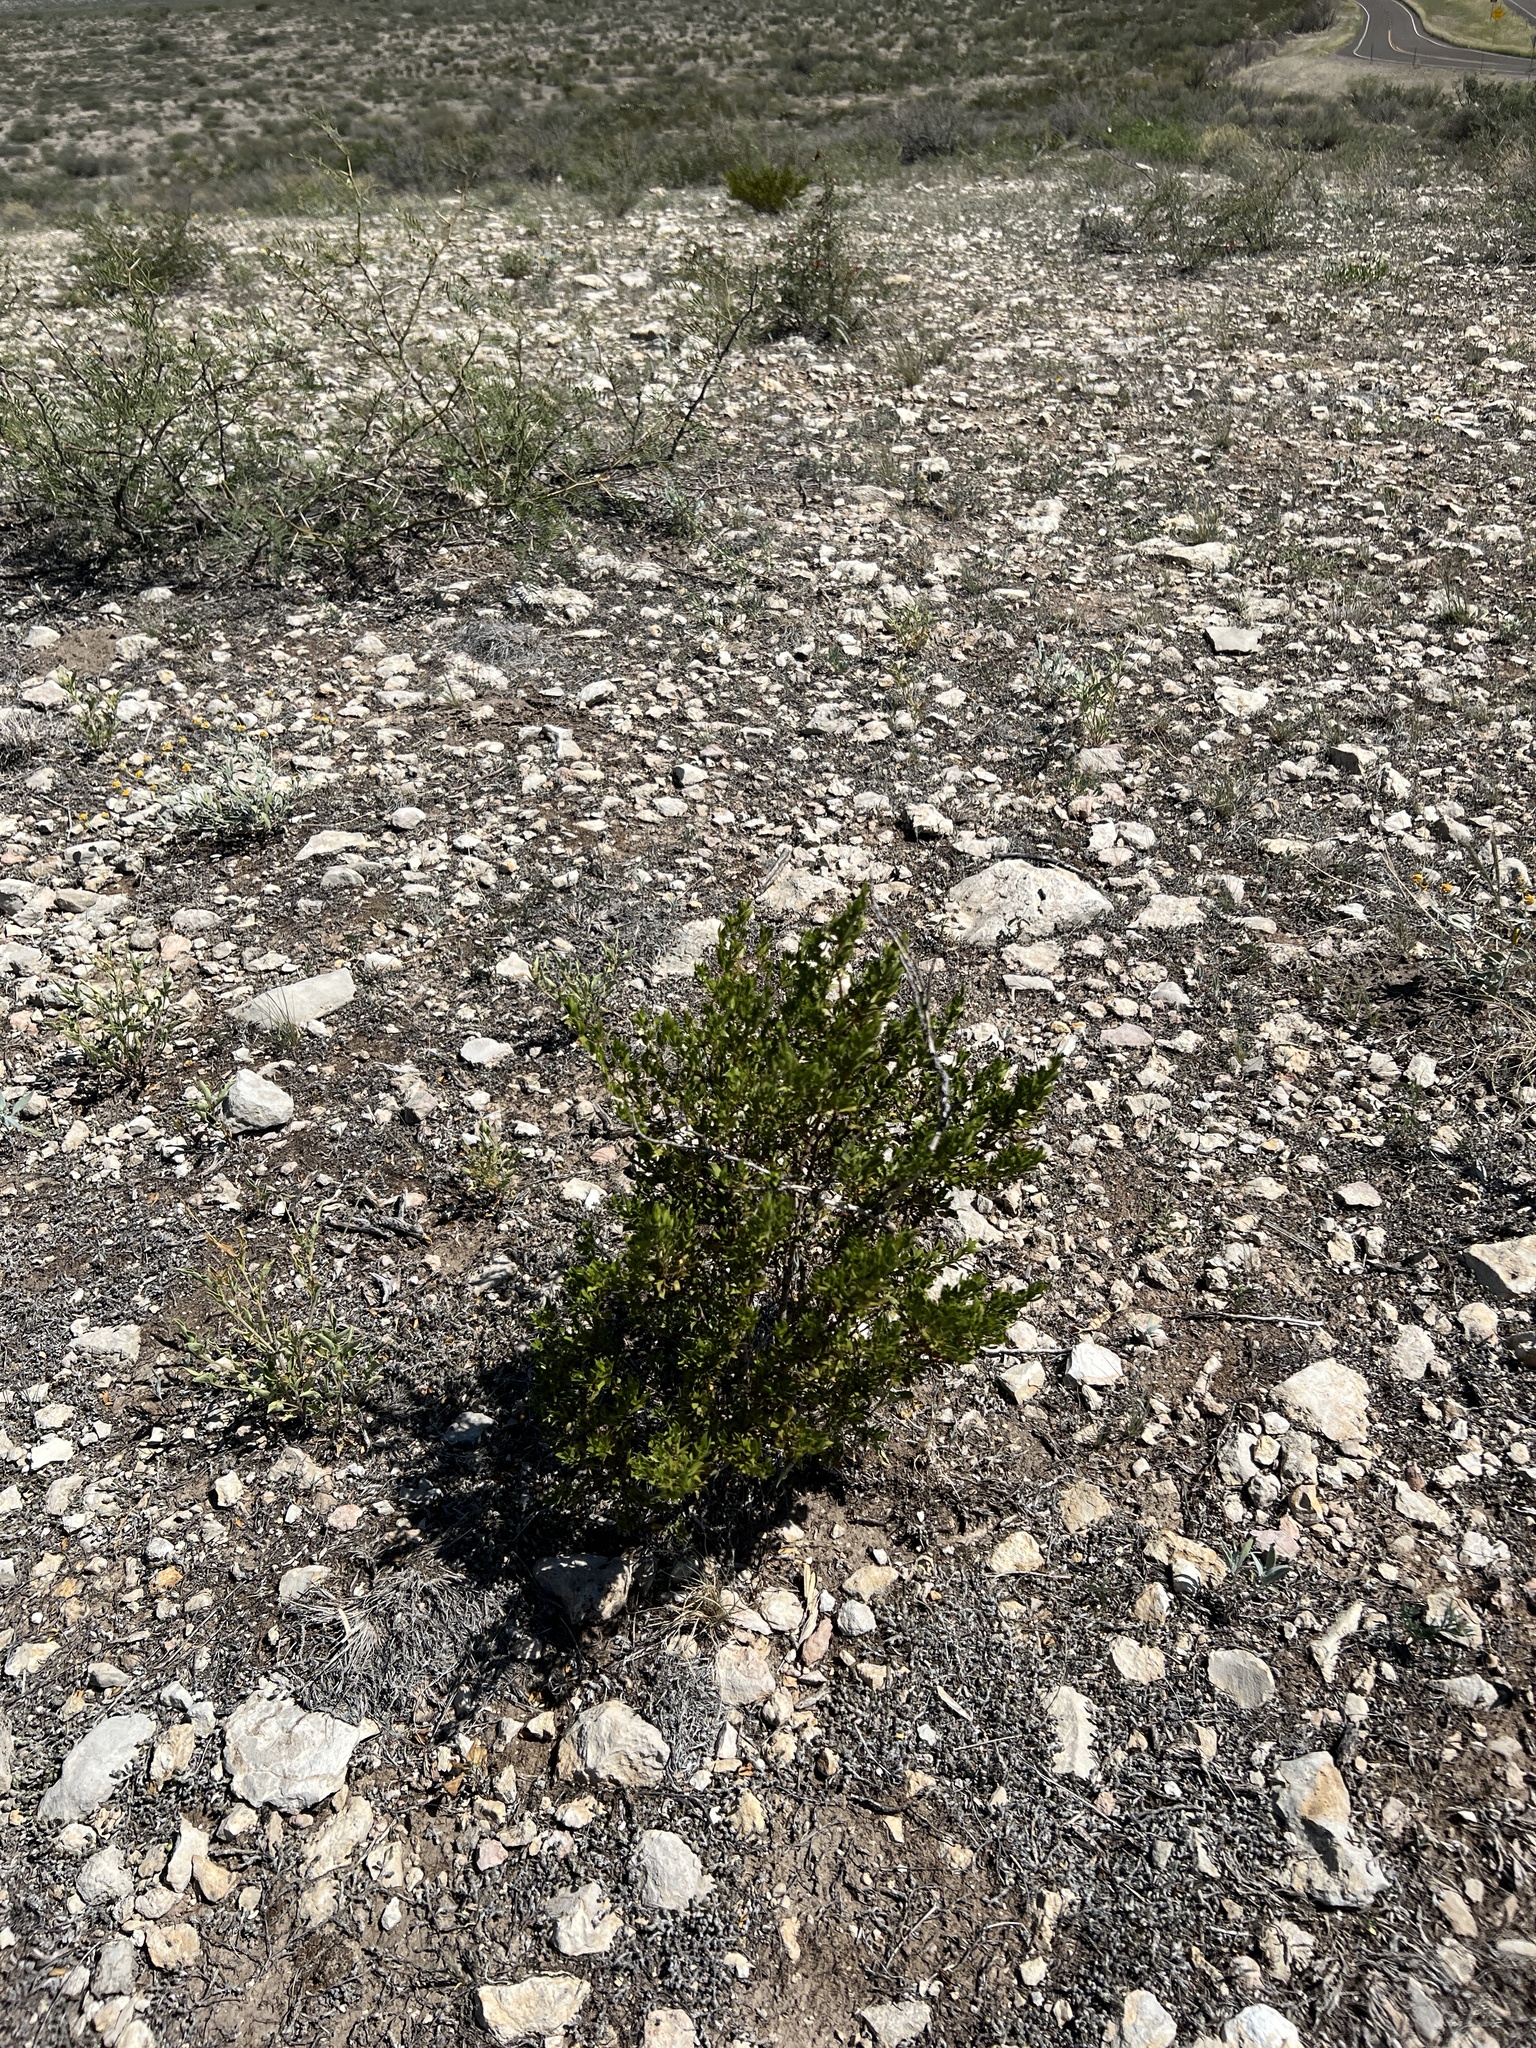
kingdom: Plantae
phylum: Tracheophyta
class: Magnoliopsida
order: Zygophyllales
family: Zygophyllaceae
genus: Larrea
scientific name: Larrea tridentata
